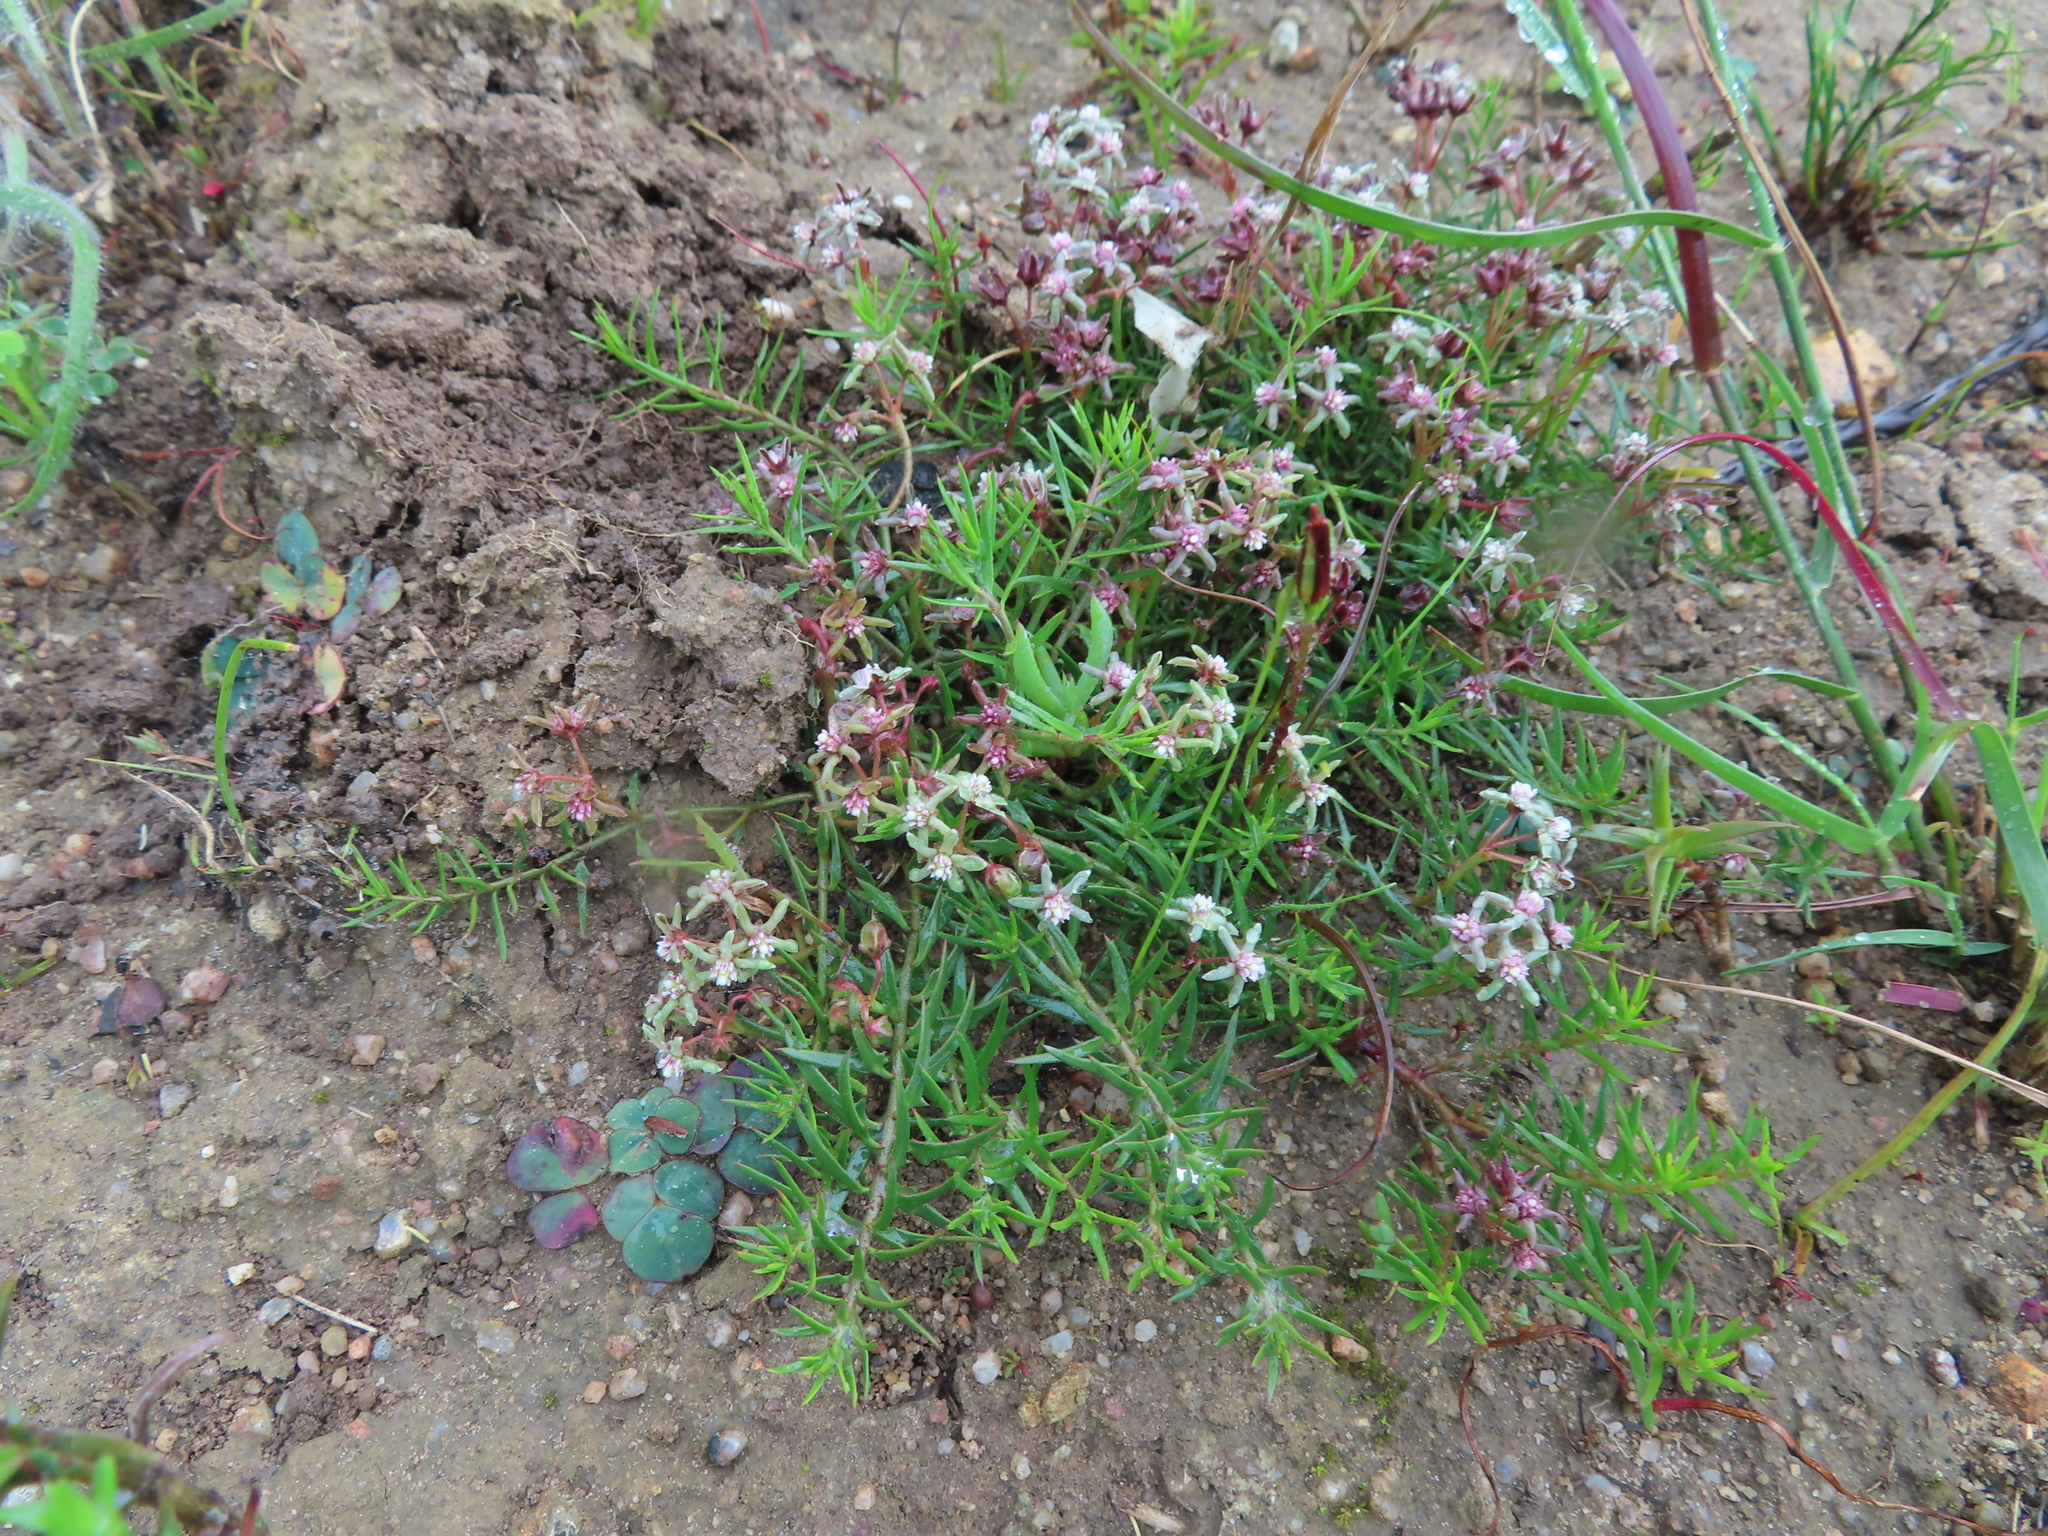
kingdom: Plantae
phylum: Tracheophyta
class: Magnoliopsida
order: Gentianales
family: Apocynaceae
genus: Eustegia
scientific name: Eustegia minuta
